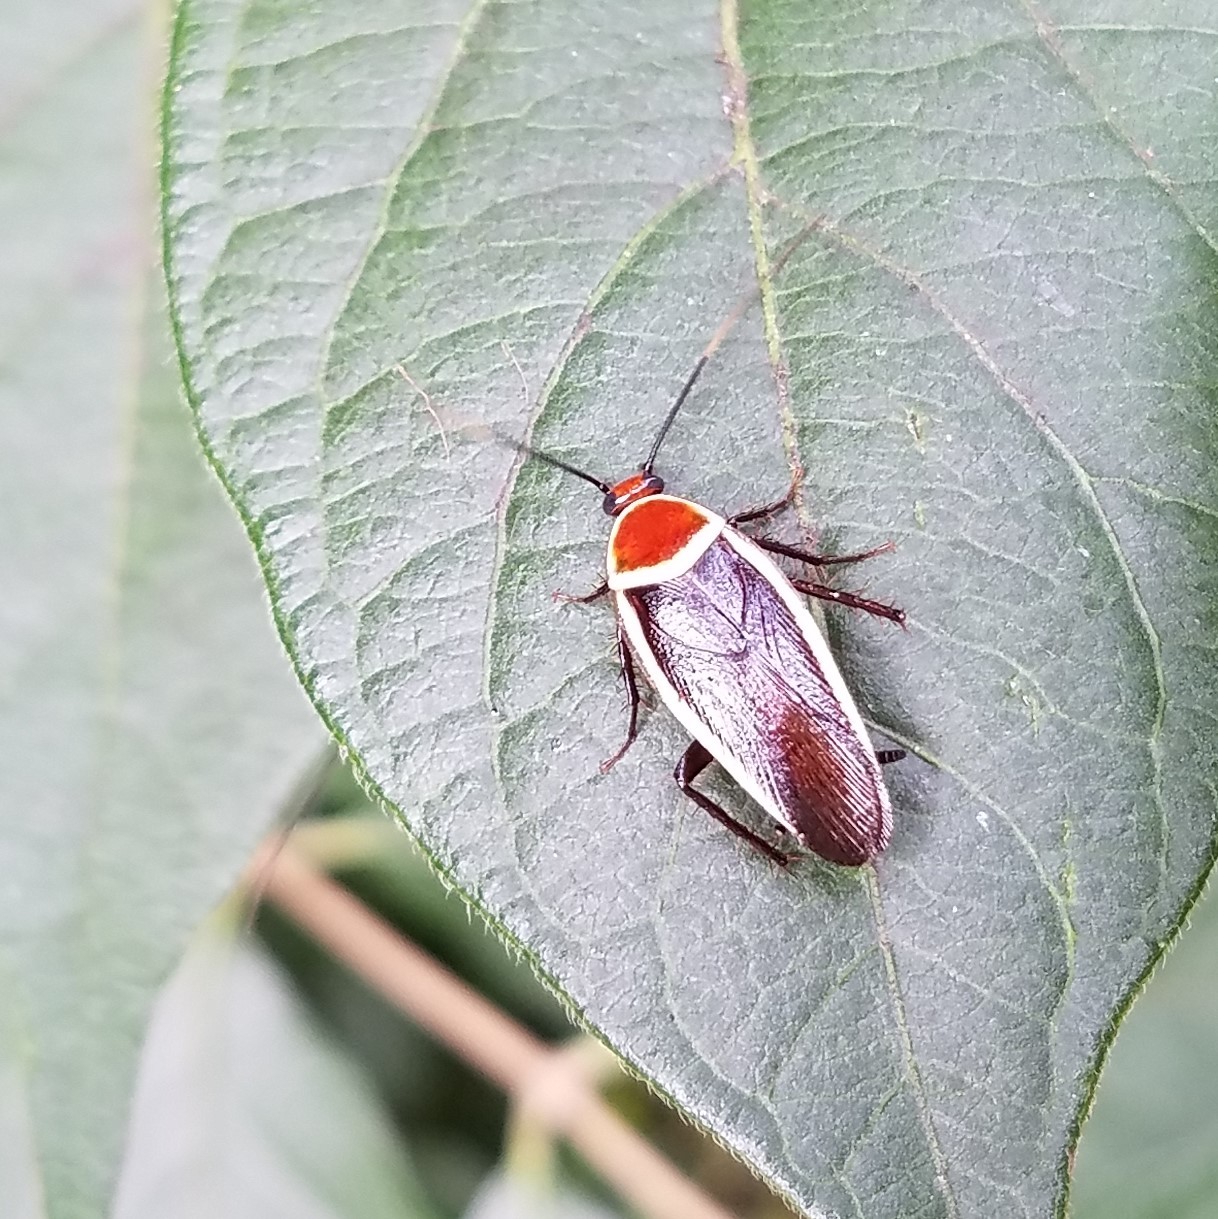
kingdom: Animalia
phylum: Arthropoda
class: Insecta
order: Blattodea
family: Ectobiidae
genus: Pseudomops
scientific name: Pseudomops septentrionalis
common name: Pale-bordered field cockroach
